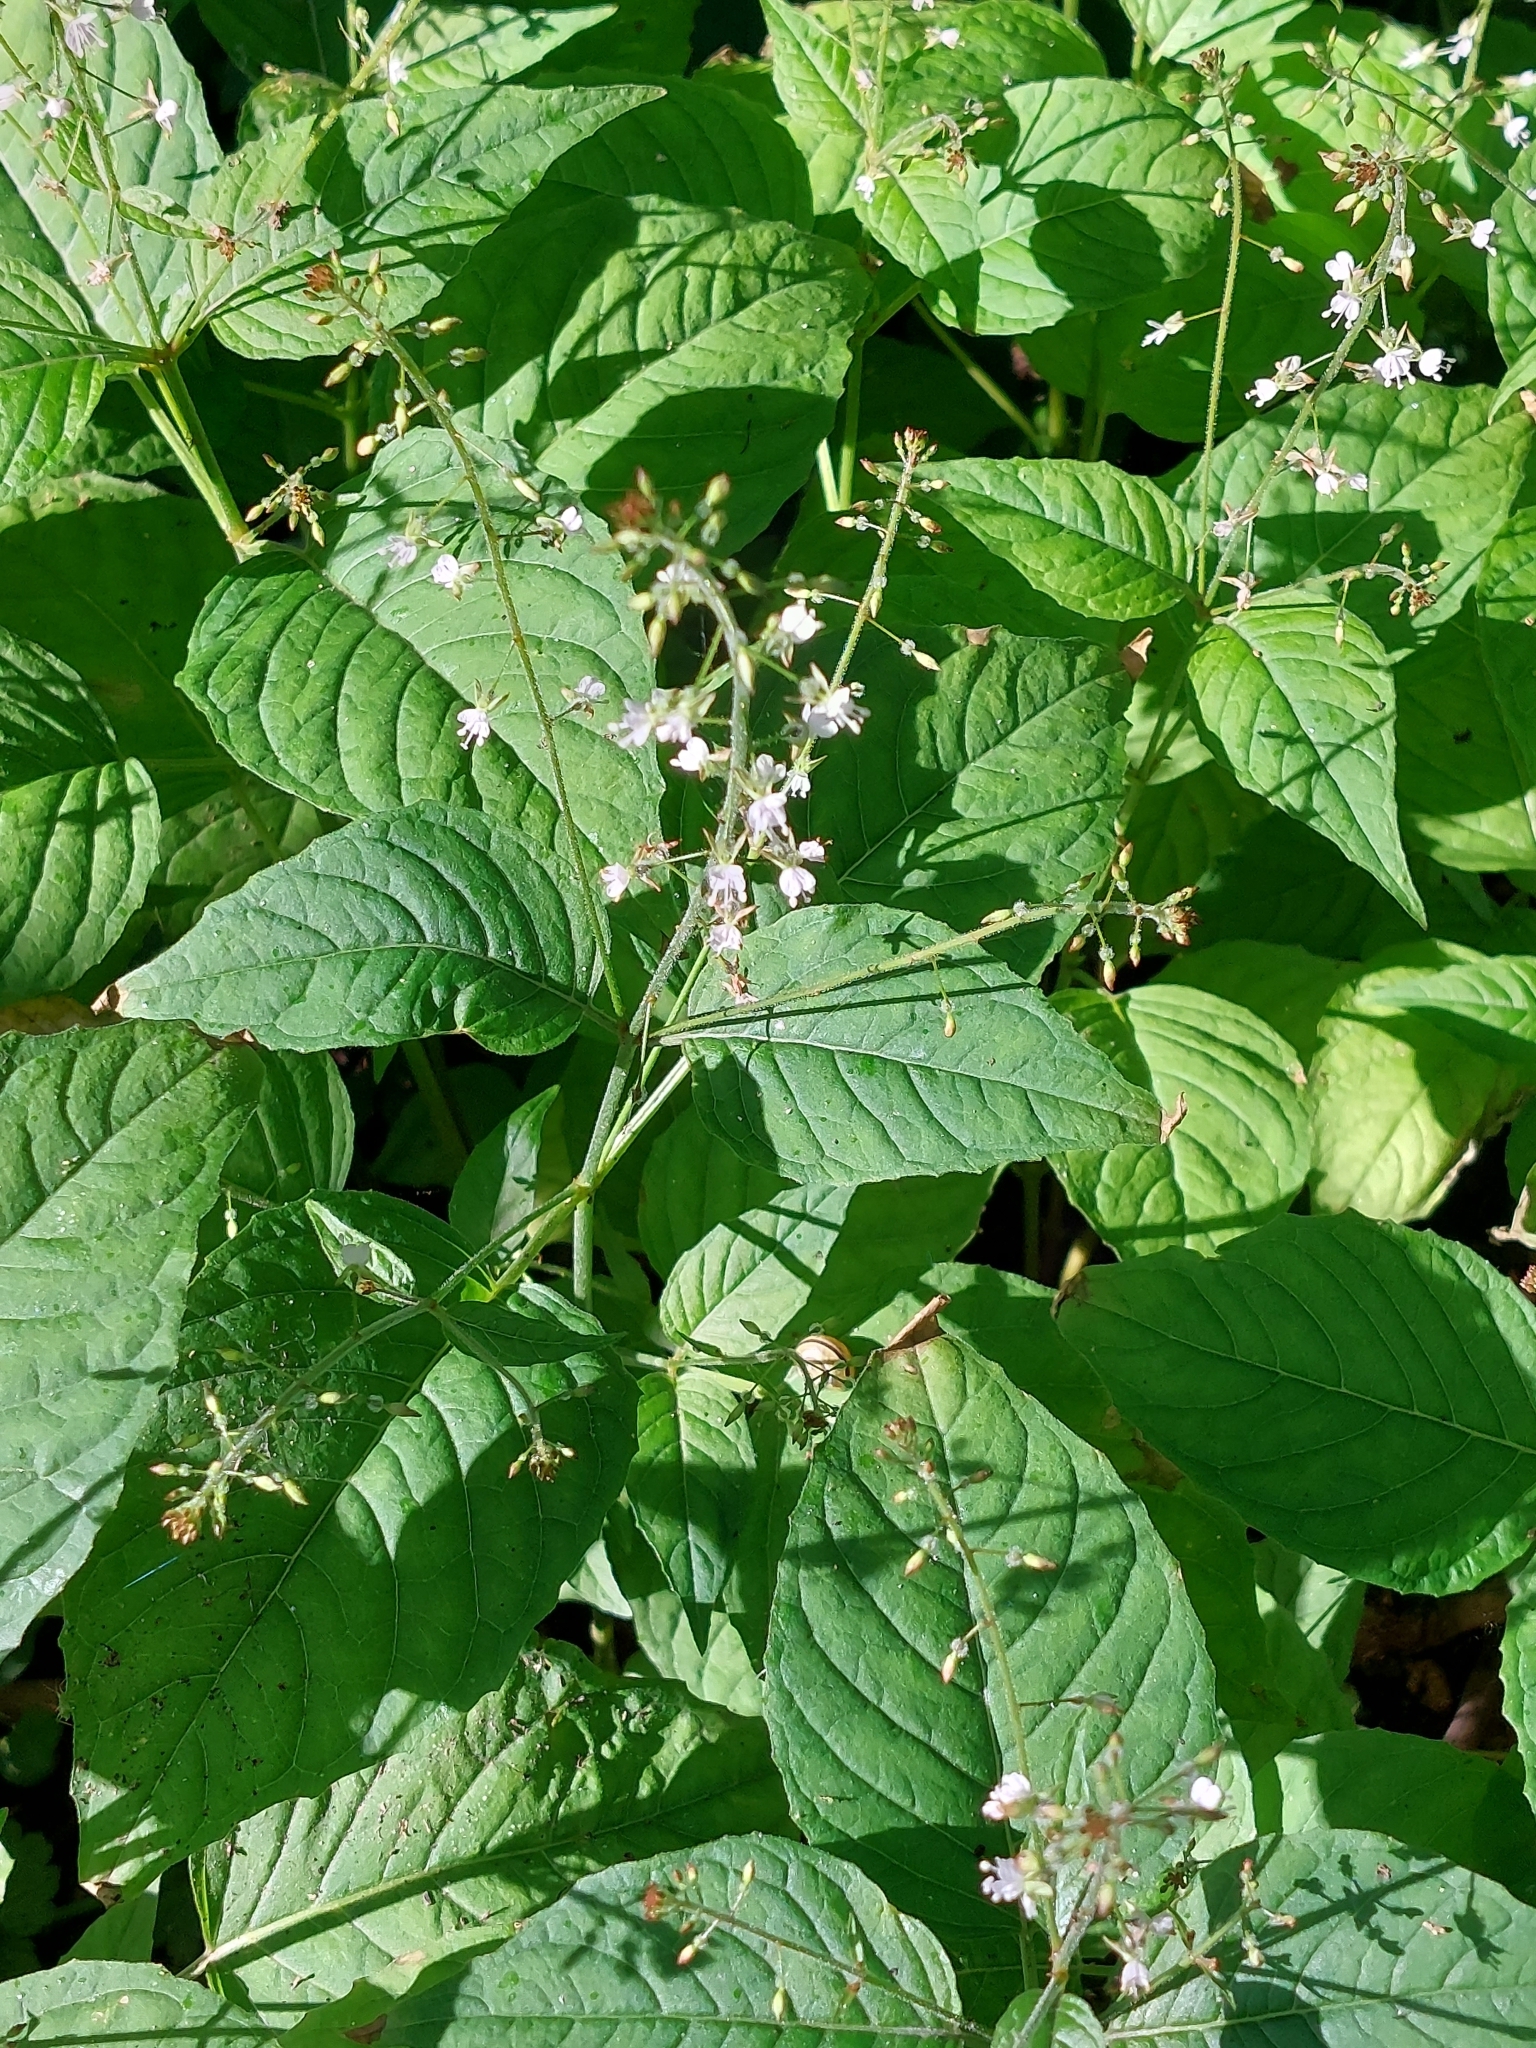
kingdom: Plantae
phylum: Tracheophyta
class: Magnoliopsida
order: Myrtales
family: Onagraceae
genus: Circaea
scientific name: Circaea lutetiana
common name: Enchanter's-nightshade
